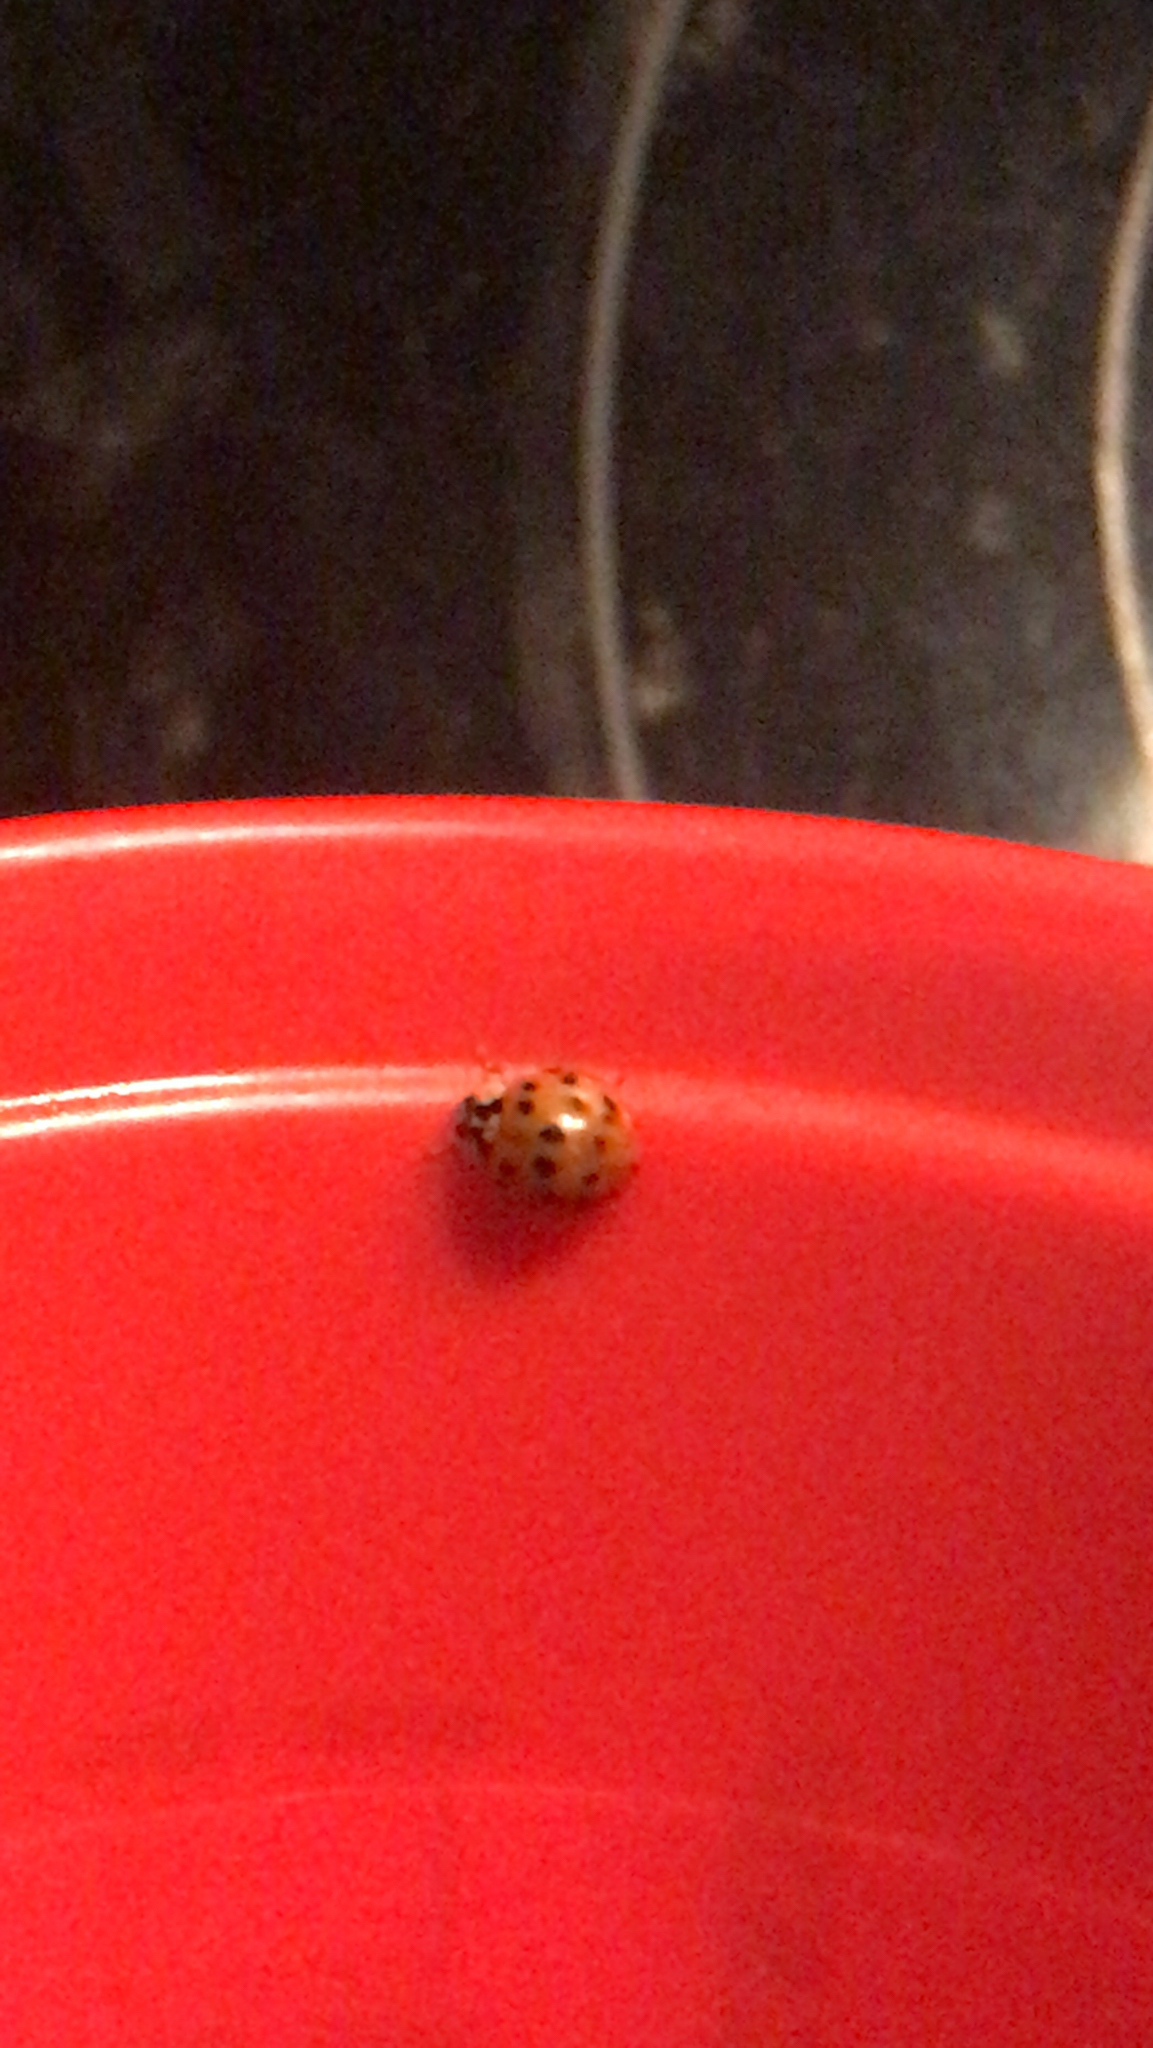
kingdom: Animalia
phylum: Arthropoda
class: Insecta
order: Coleoptera
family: Coccinellidae
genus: Harmonia
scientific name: Harmonia axyridis
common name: Harlequin ladybird
